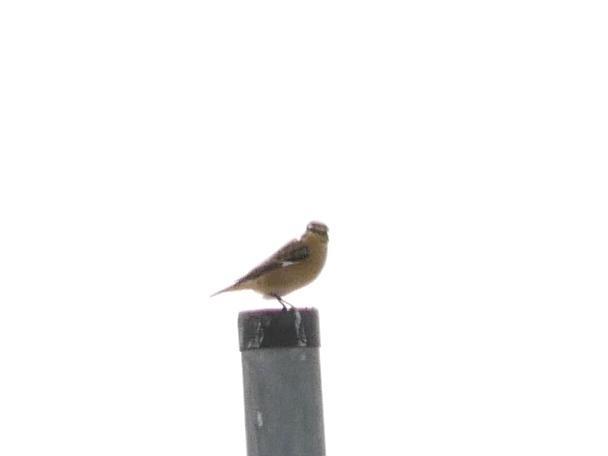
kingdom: Animalia
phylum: Chordata
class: Aves
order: Passeriformes
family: Muscicapidae
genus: Saxicola
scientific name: Saxicola rubetra
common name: Whinchat
